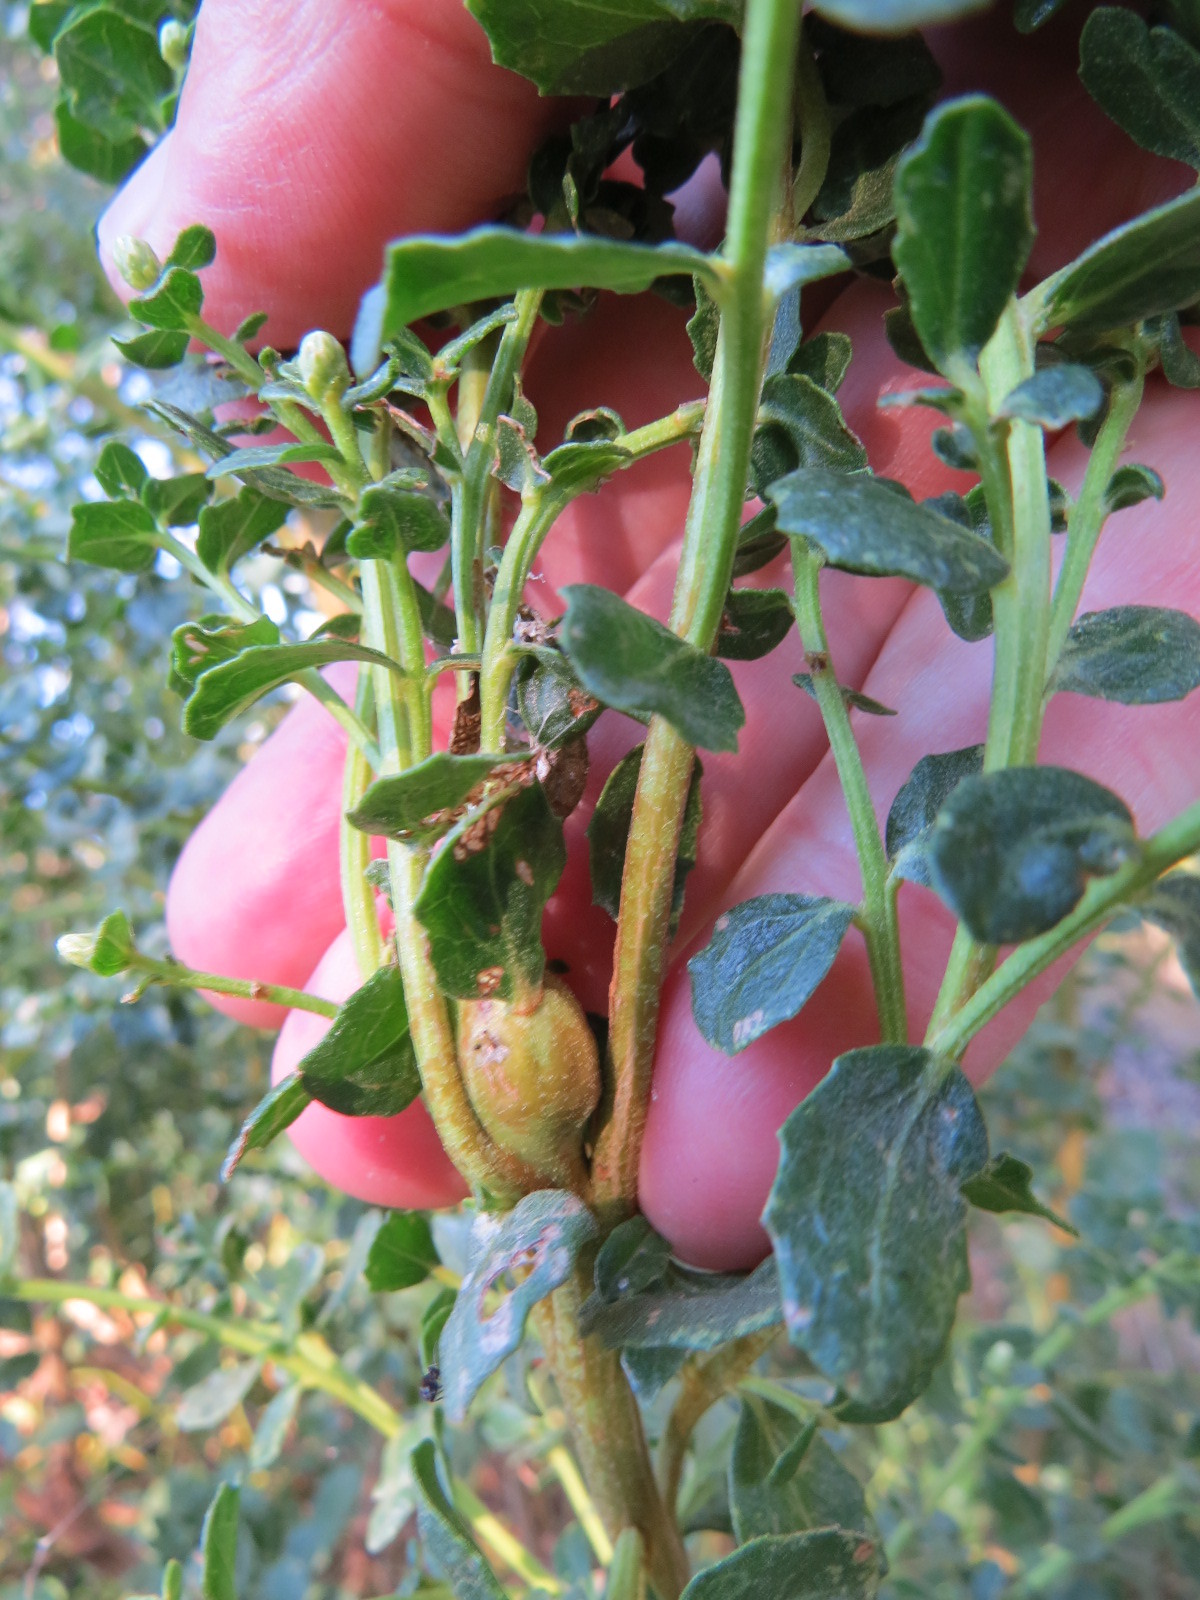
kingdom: Animalia
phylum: Arthropoda
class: Insecta
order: Lepidoptera
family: Gelechiidae
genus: Gnorimoschema
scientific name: Gnorimoschema baccharisella
